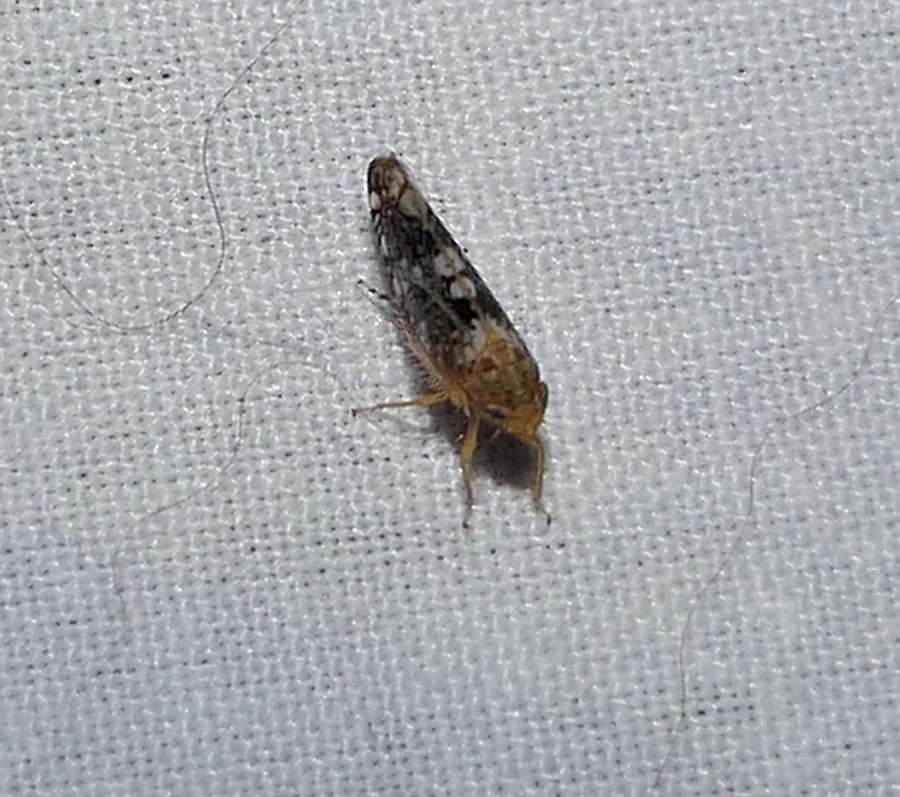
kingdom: Animalia
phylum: Arthropoda
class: Insecta
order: Hemiptera
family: Cicadellidae
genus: Prescottia
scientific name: Prescottia lobata
